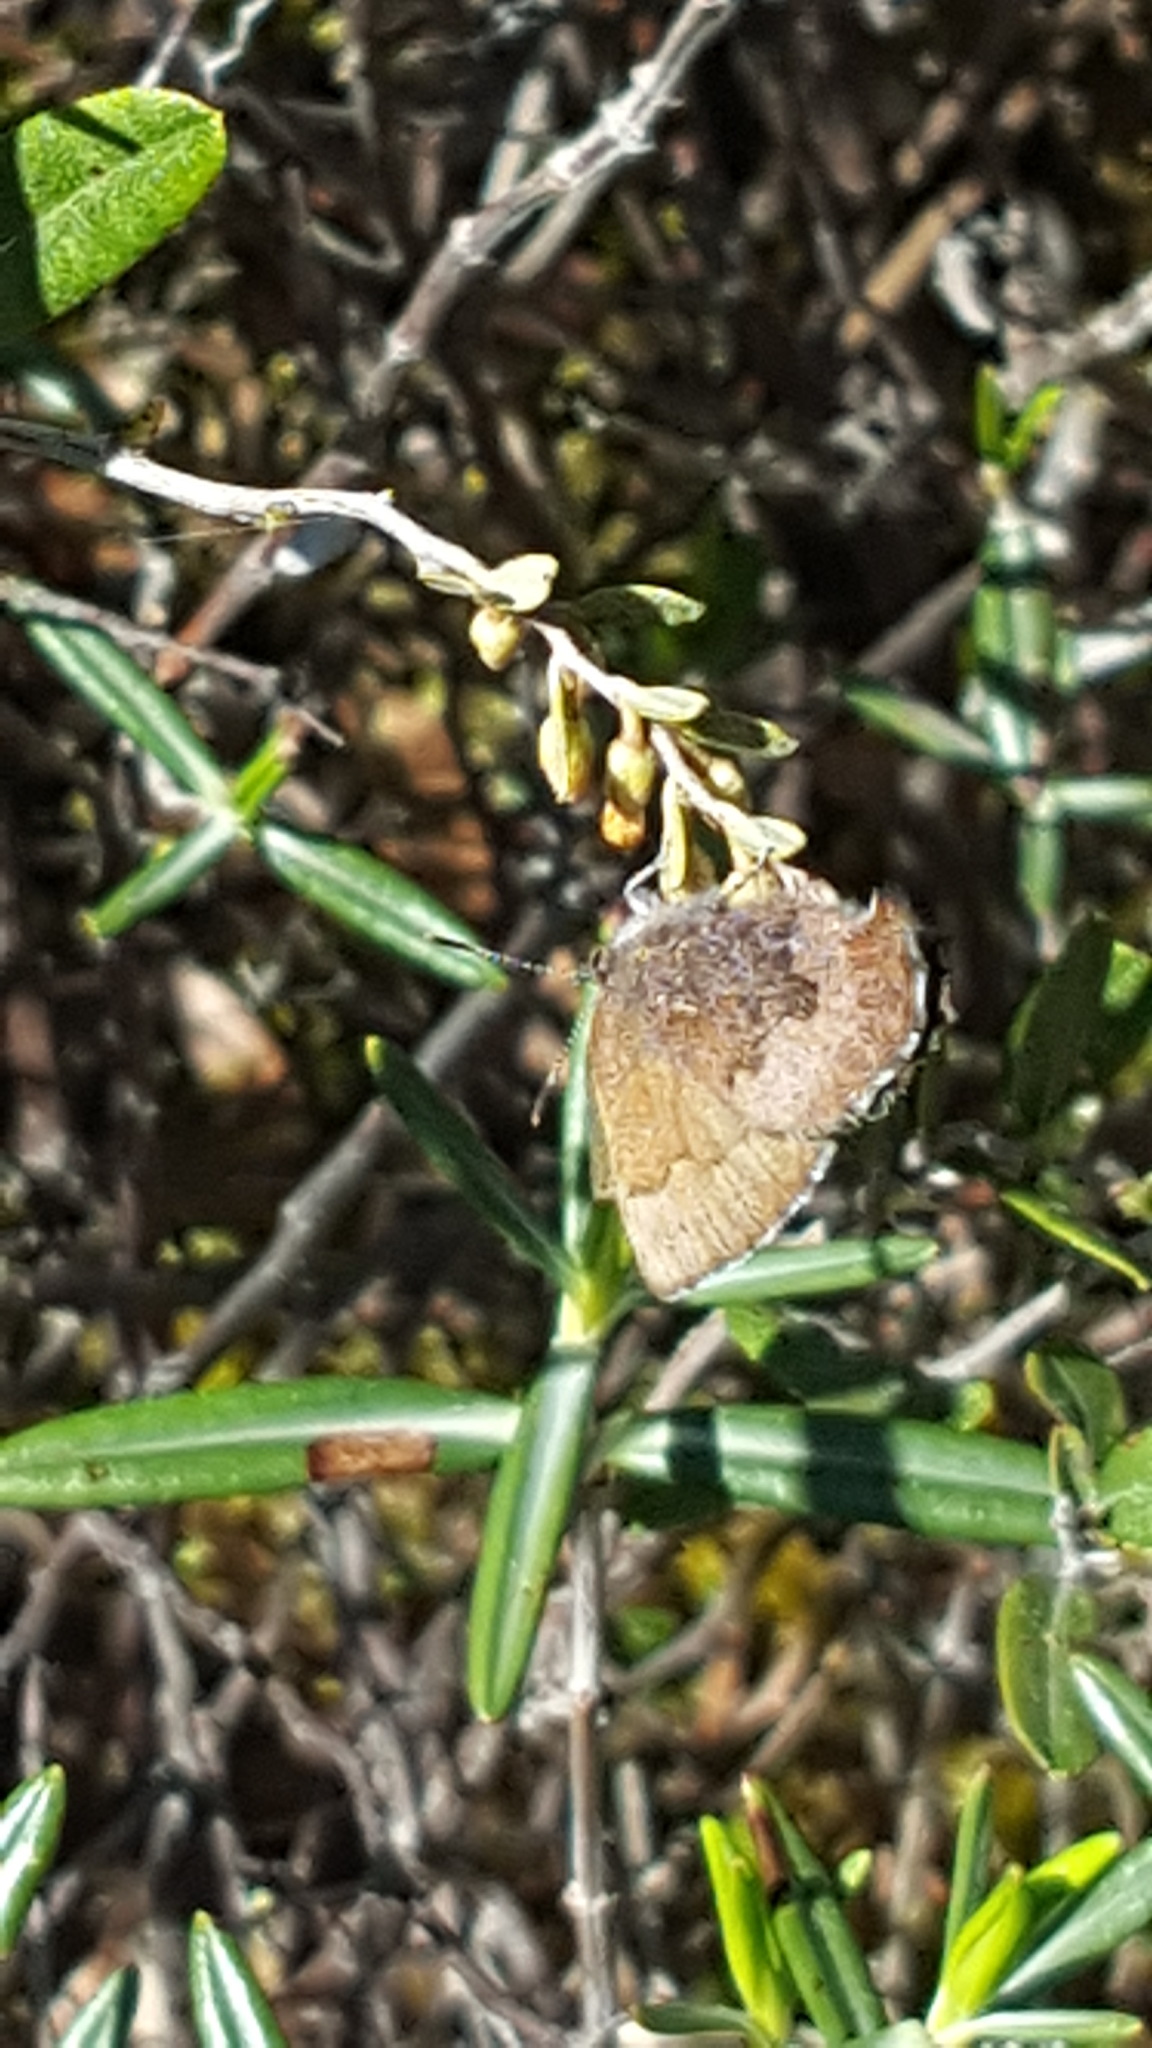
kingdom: Animalia
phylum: Arthropoda
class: Insecta
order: Lepidoptera
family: Lycaenidae
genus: Incisalia
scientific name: Incisalia irioides
